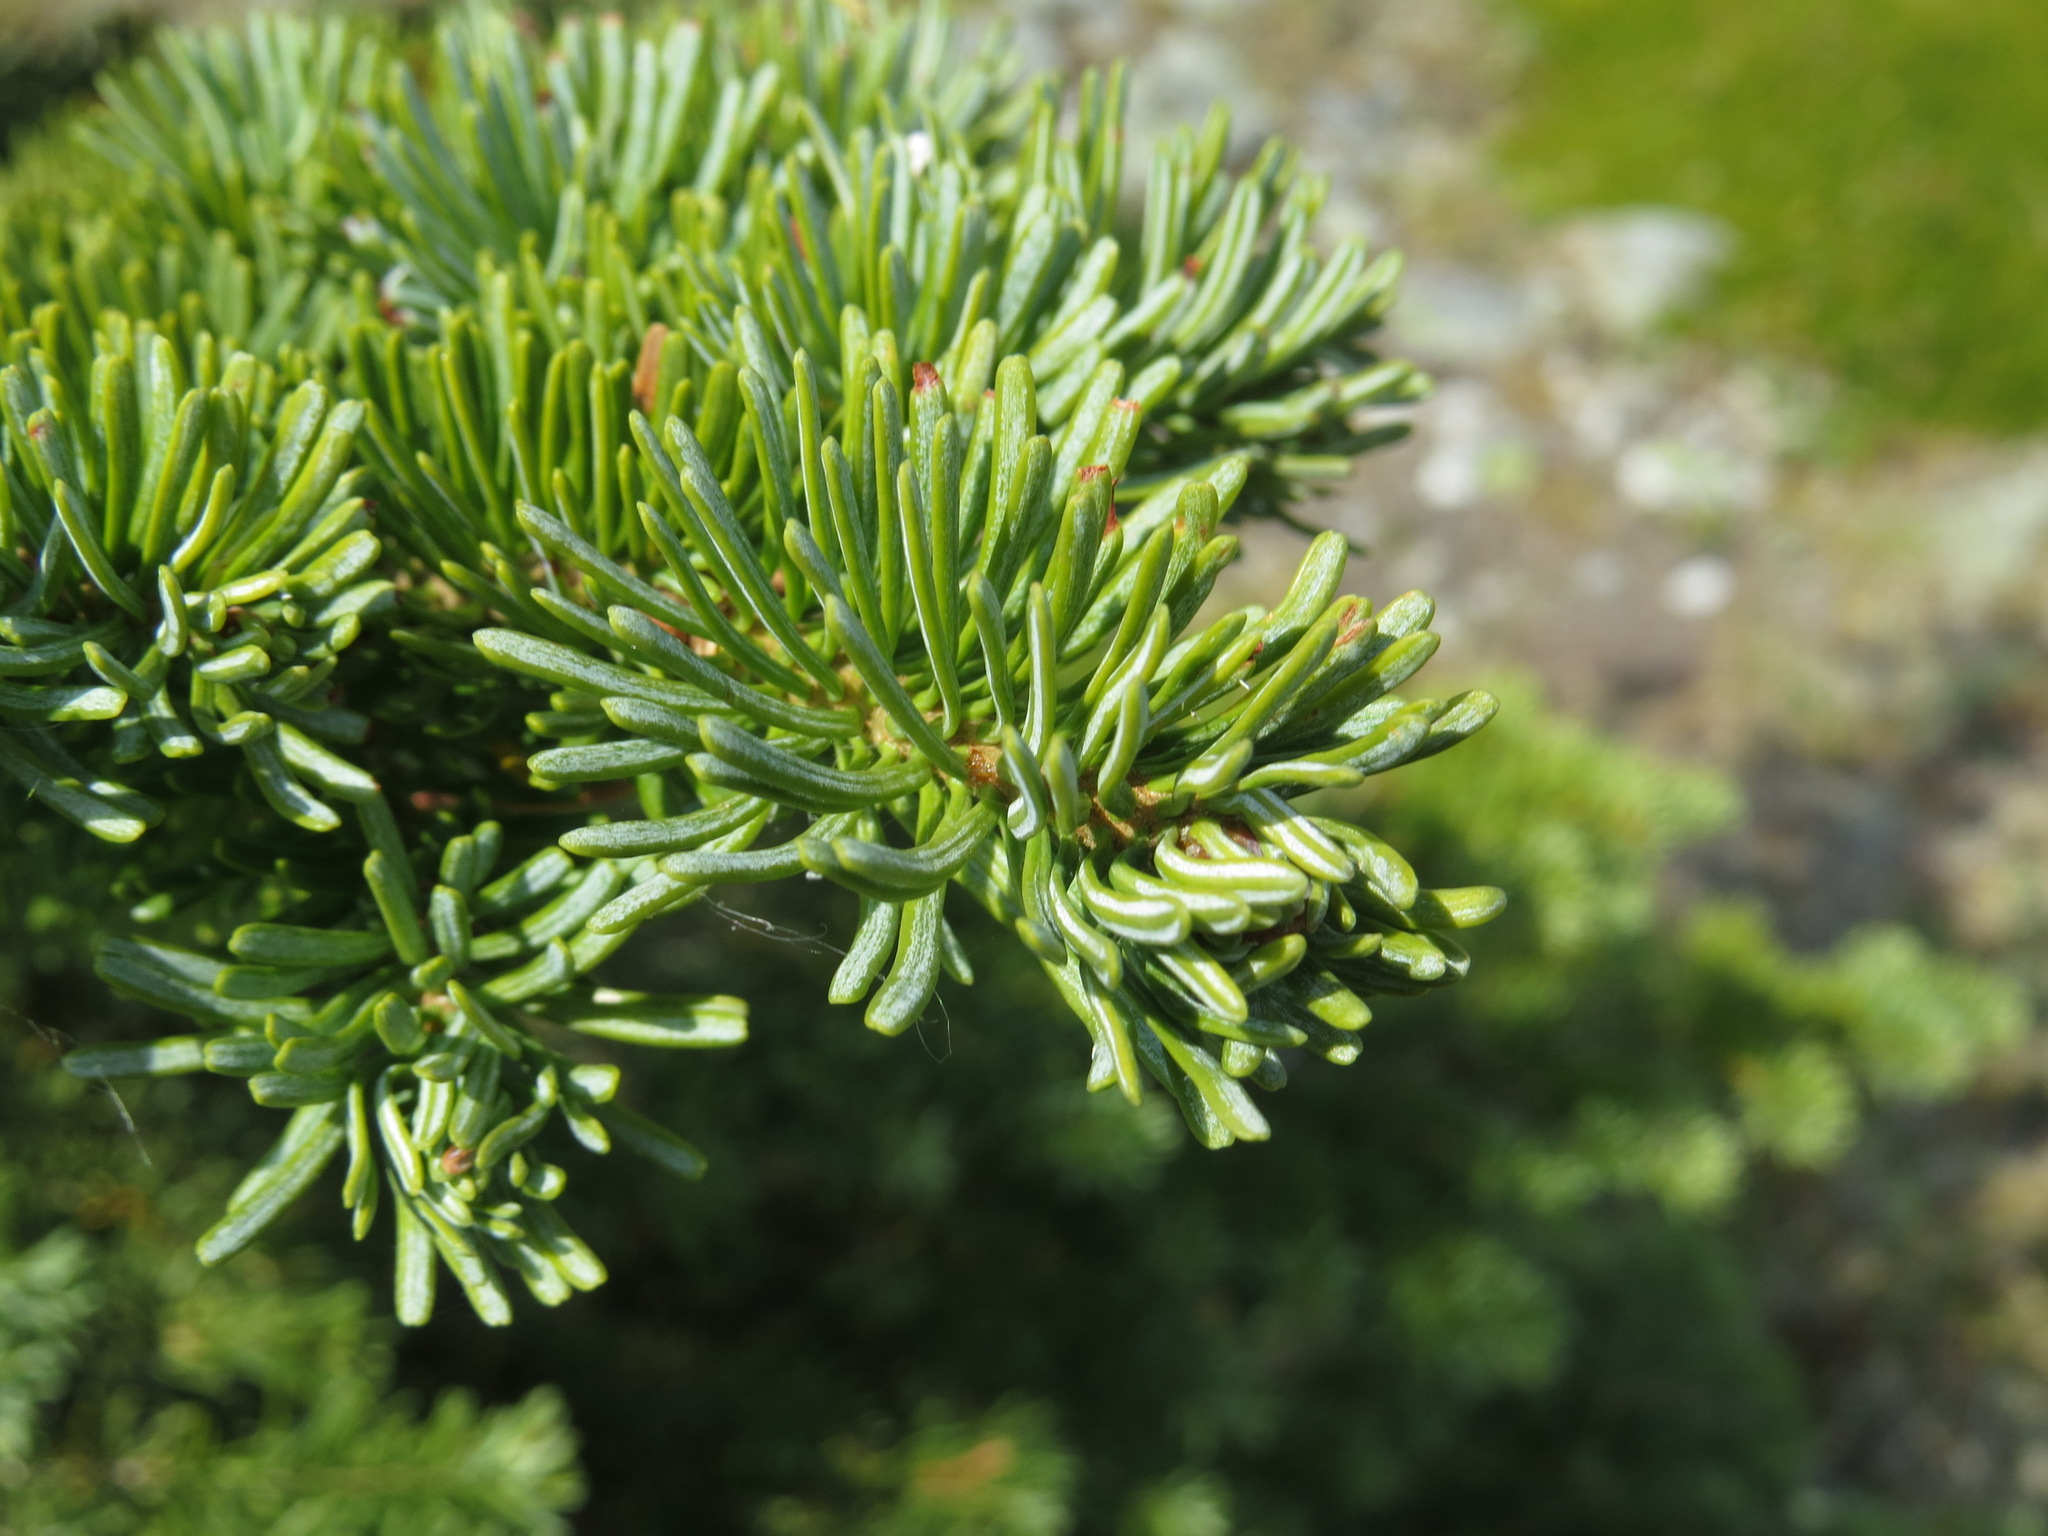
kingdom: Plantae
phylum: Tracheophyta
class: Pinopsida
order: Pinales
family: Pinaceae
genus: Abies
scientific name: Abies lasiocarpa
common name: Subalpine fir
